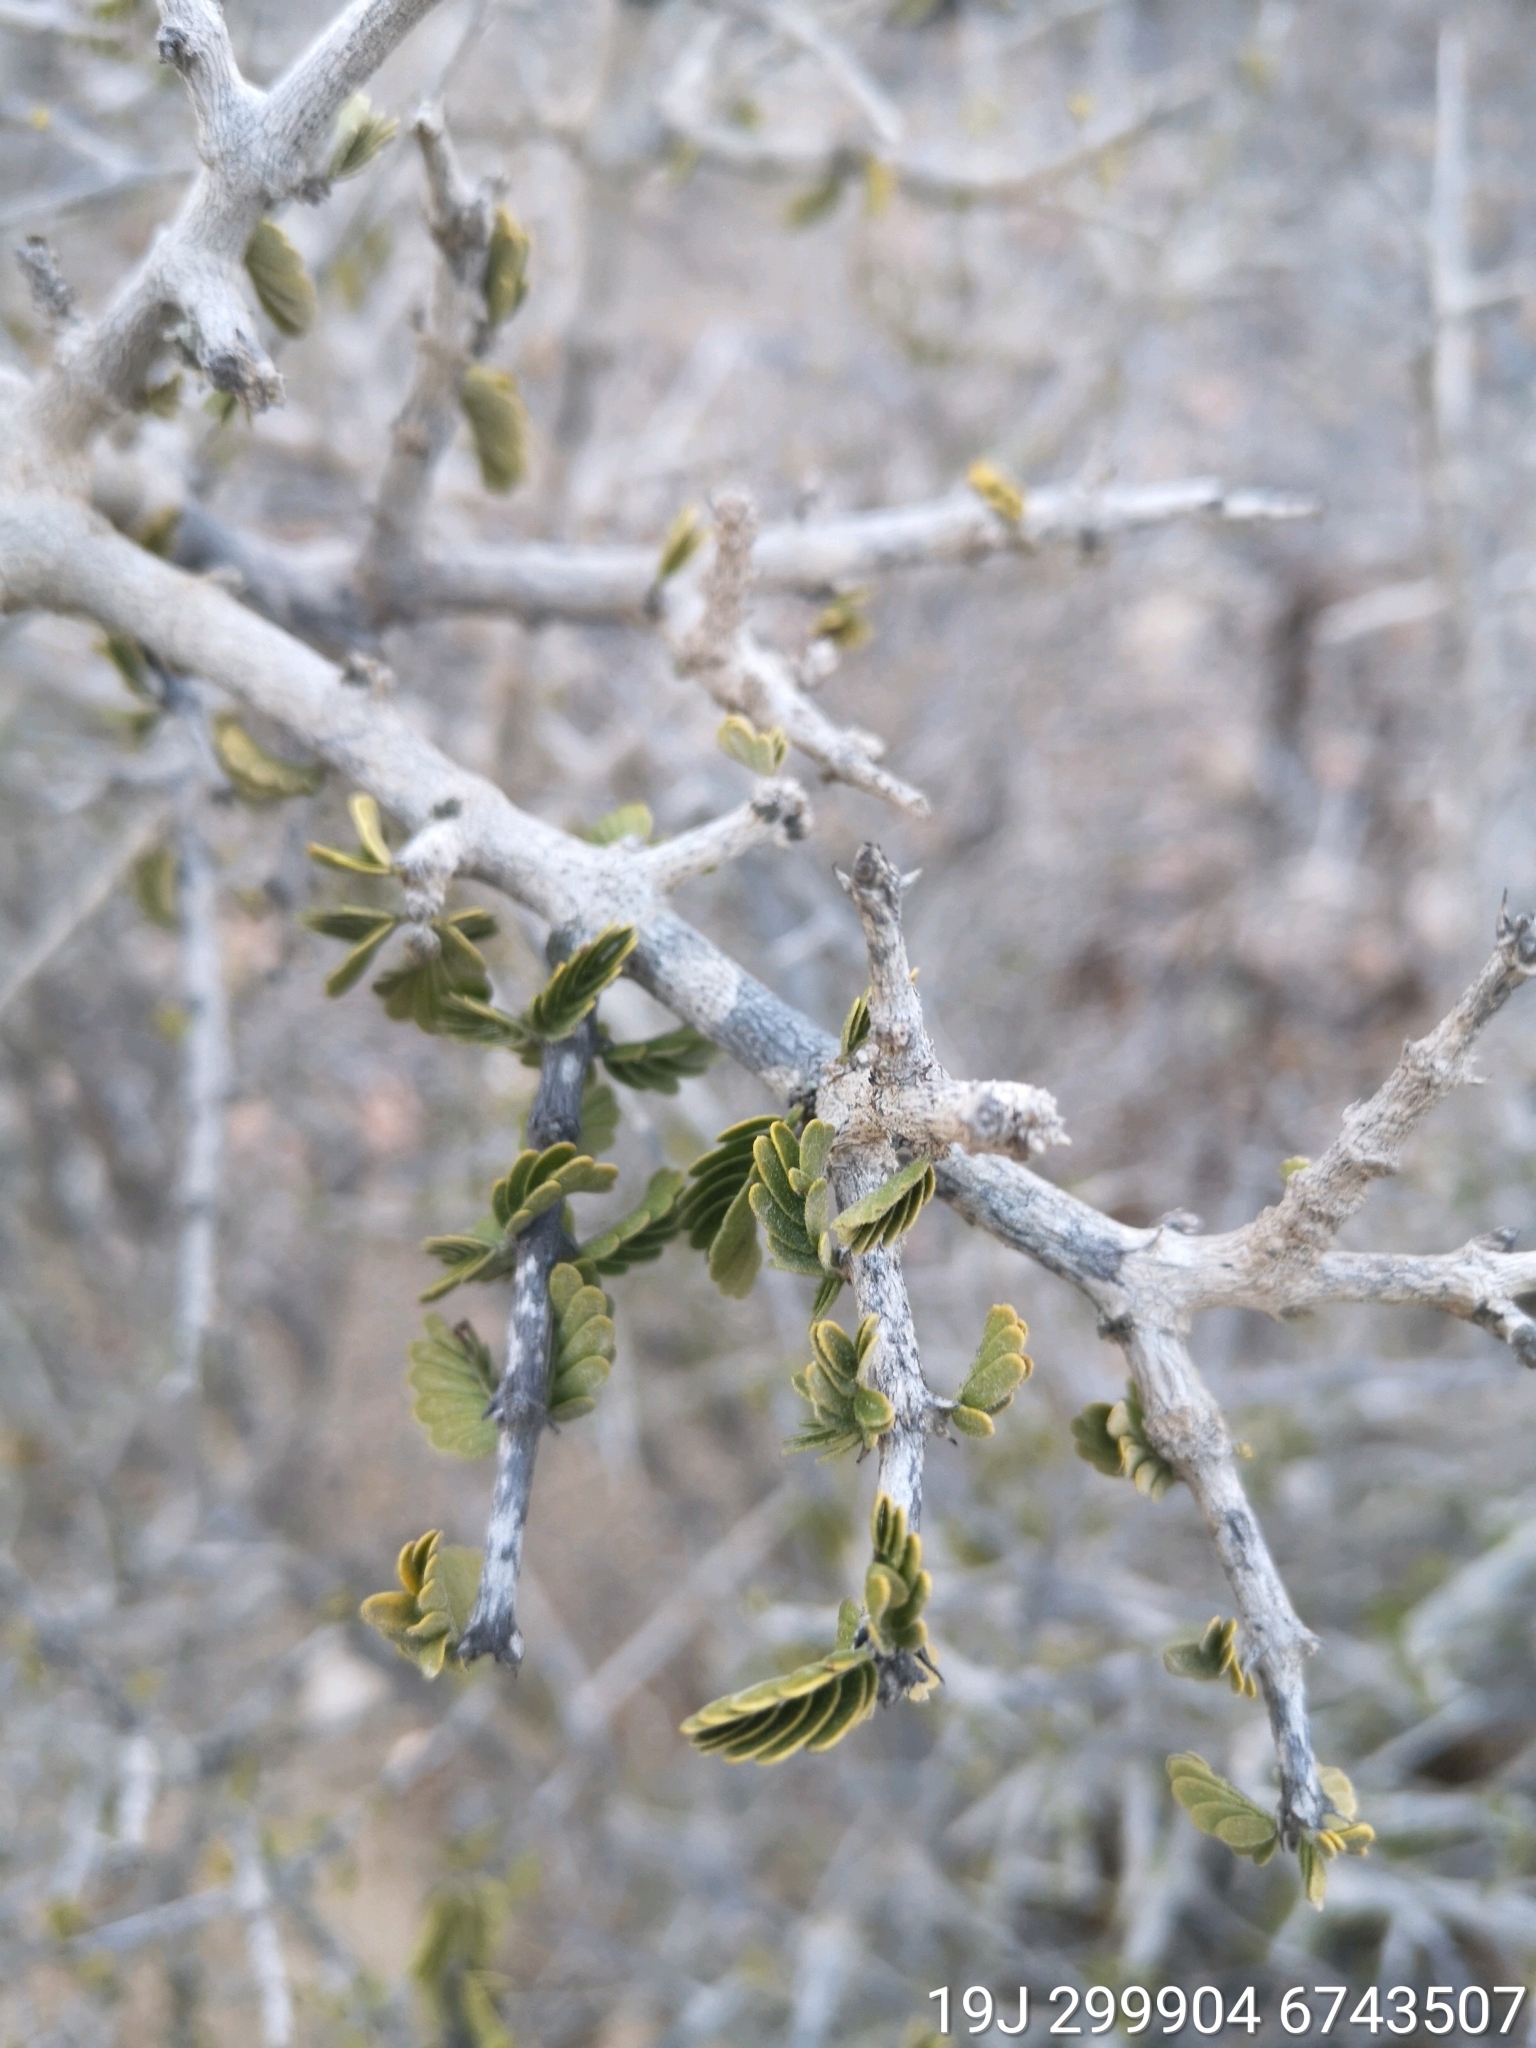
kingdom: Plantae
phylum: Tracheophyta
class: Magnoliopsida
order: Zygophyllales
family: Zygophyllaceae
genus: Porlieria
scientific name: Porlieria chilensis
